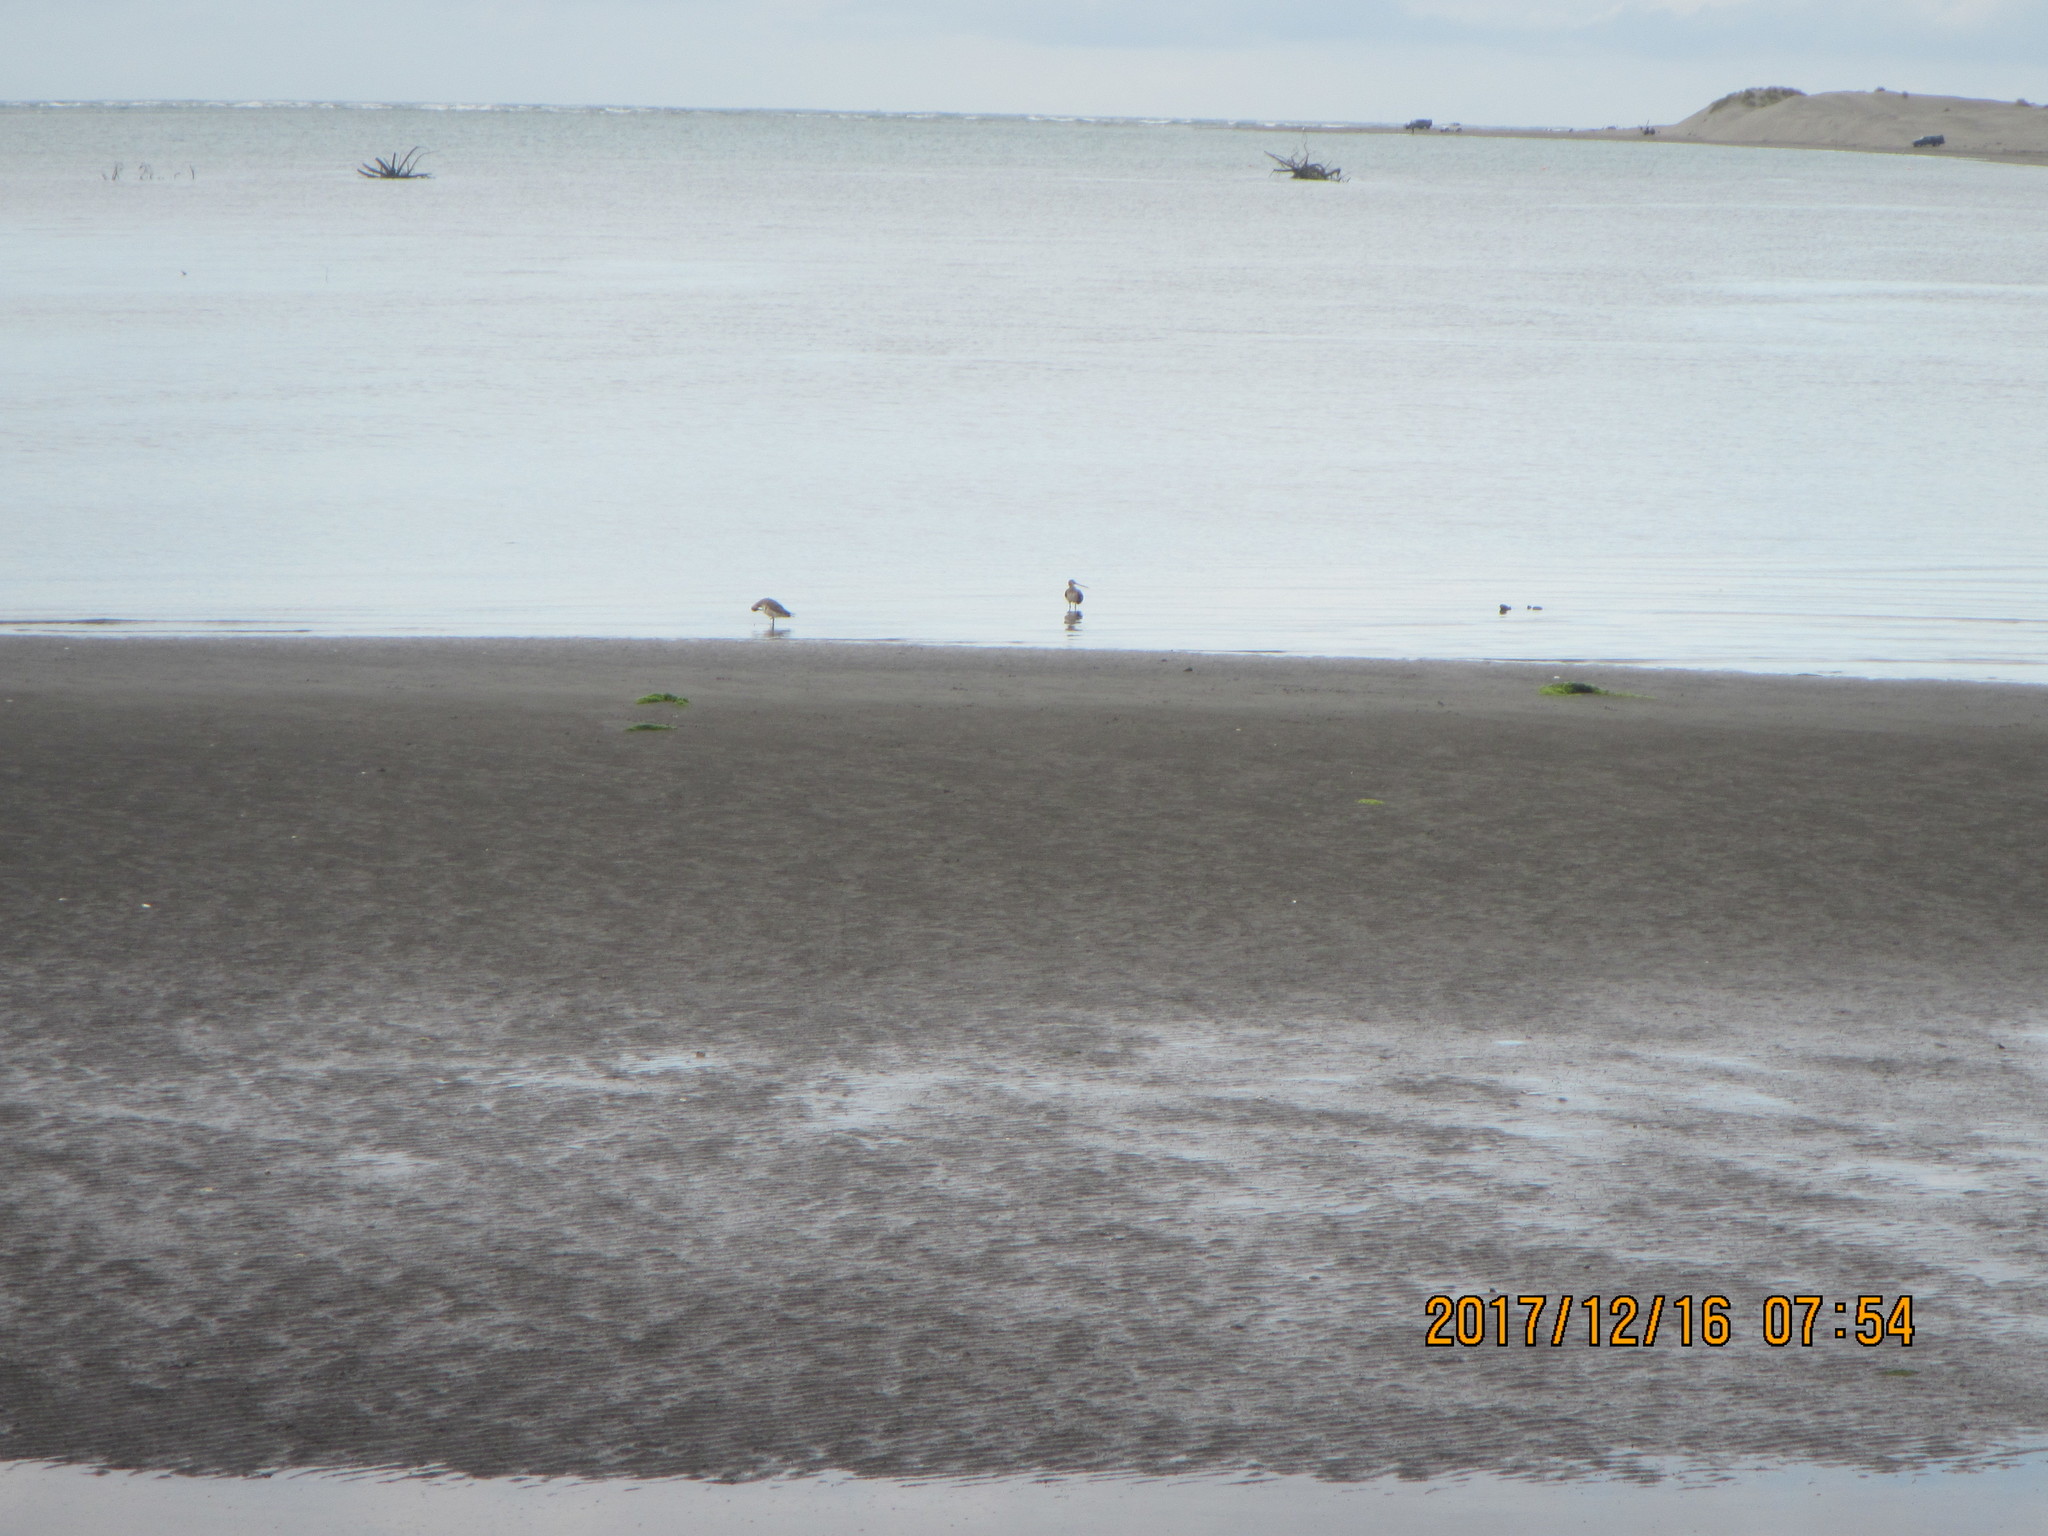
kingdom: Animalia
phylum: Chordata
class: Aves
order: Charadriiformes
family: Scolopacidae
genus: Limosa
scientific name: Limosa lapponica
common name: Bar-tailed godwit
